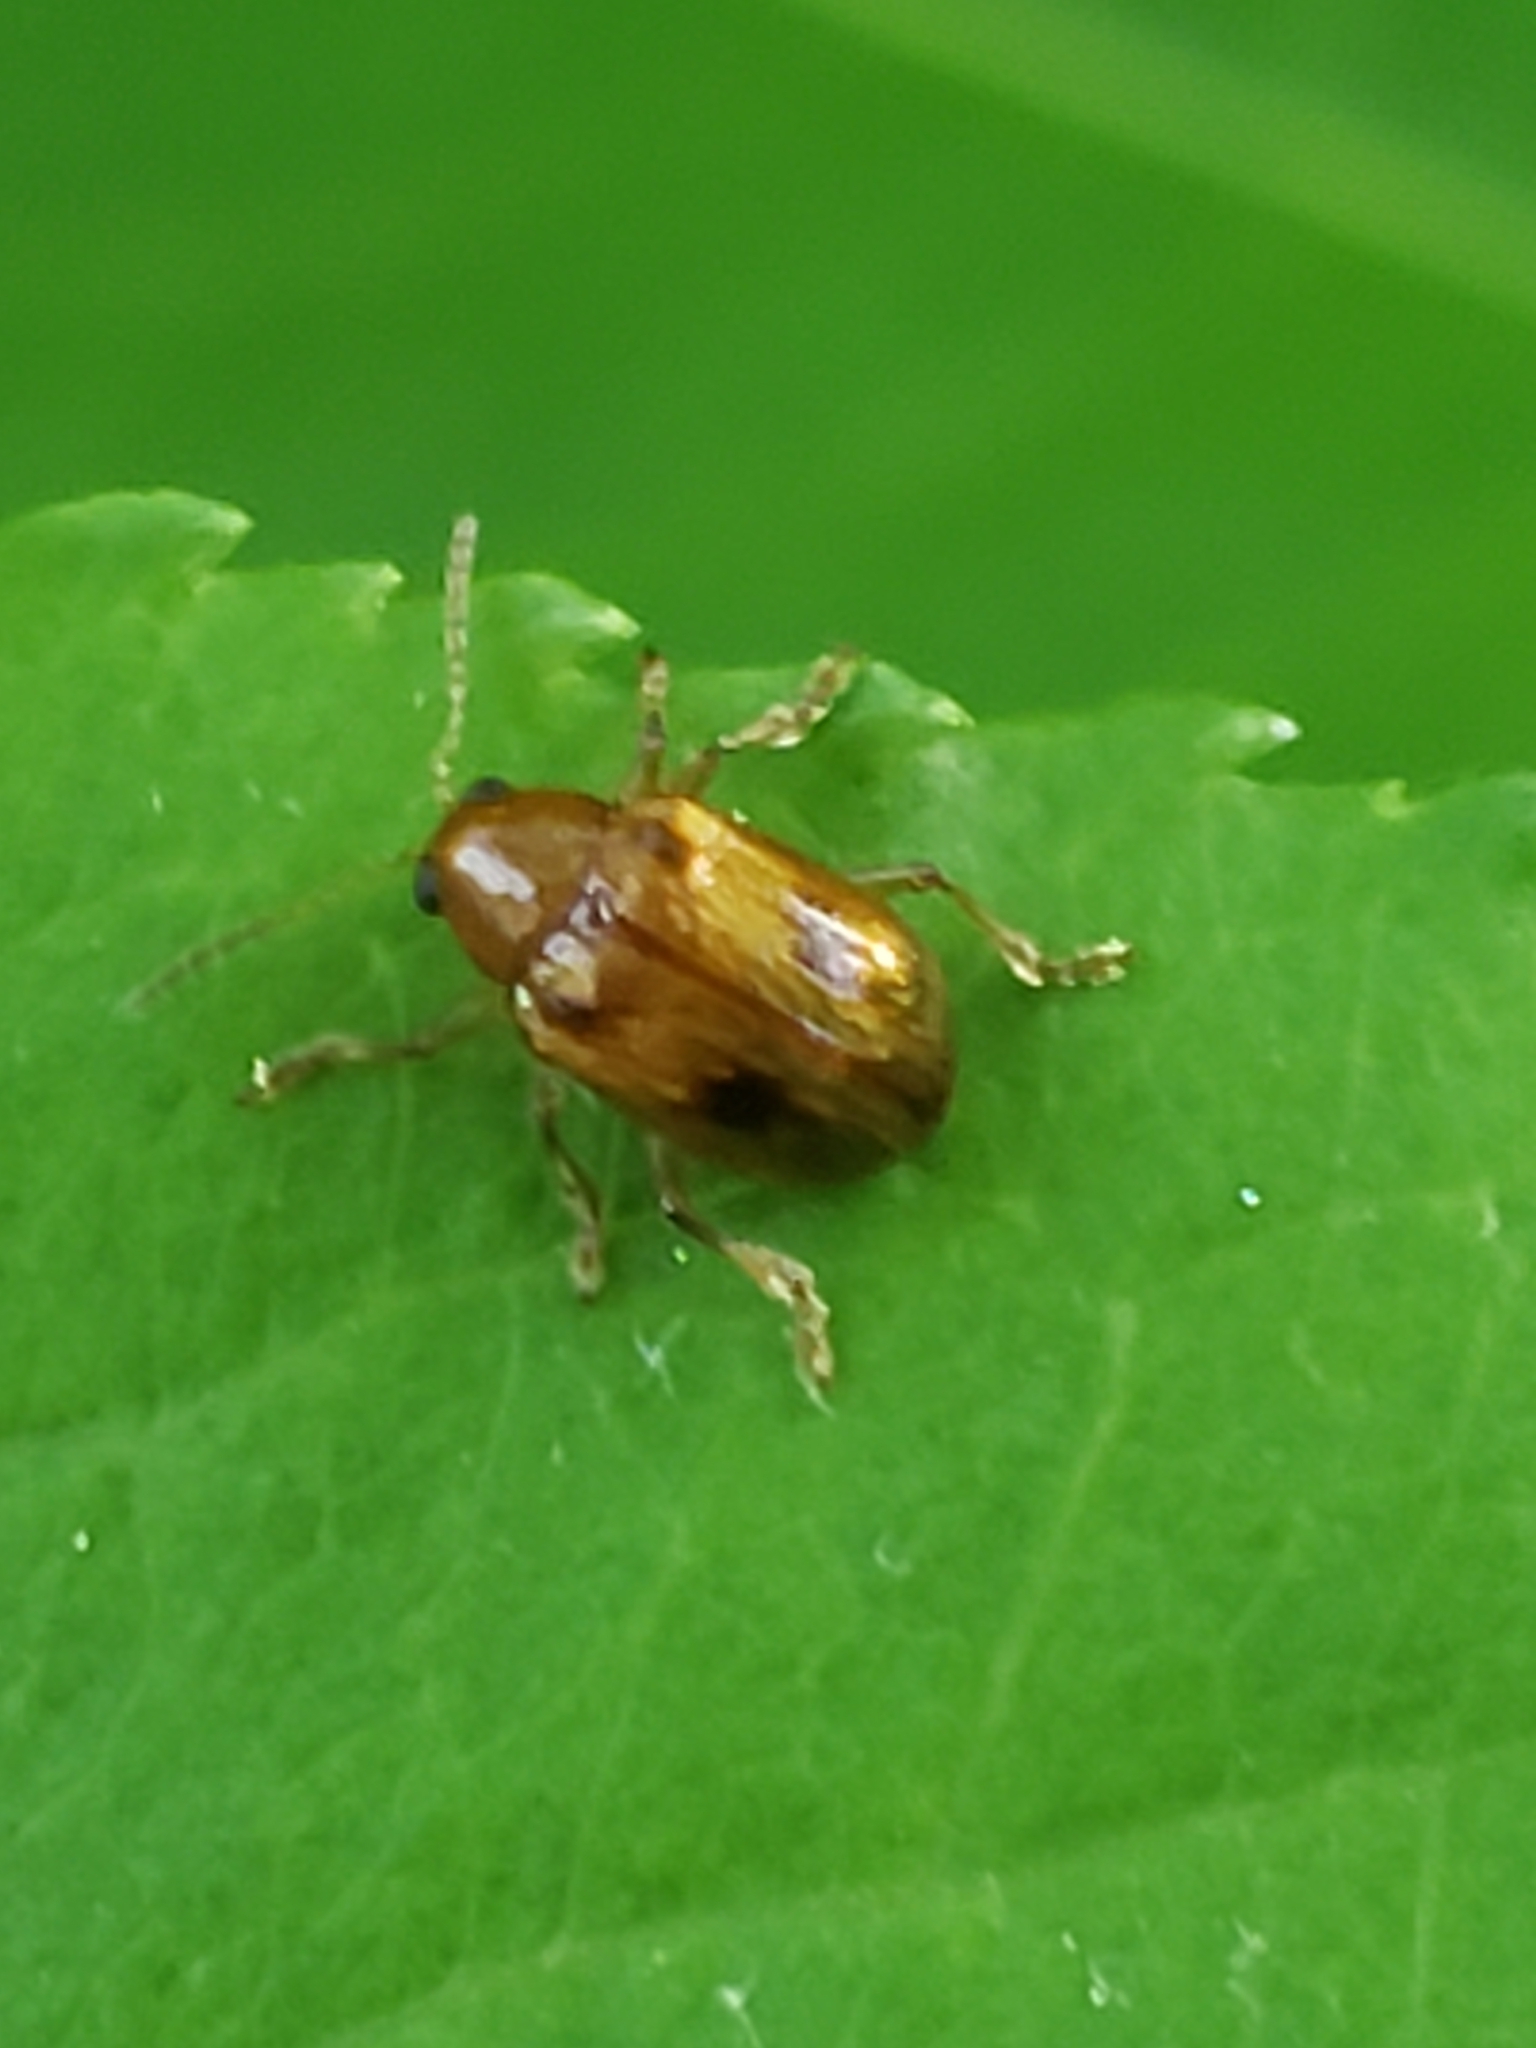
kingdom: Animalia
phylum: Arthropoda
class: Insecta
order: Coleoptera
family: Chrysomelidae
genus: Paria
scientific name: Paria quadriguttata
